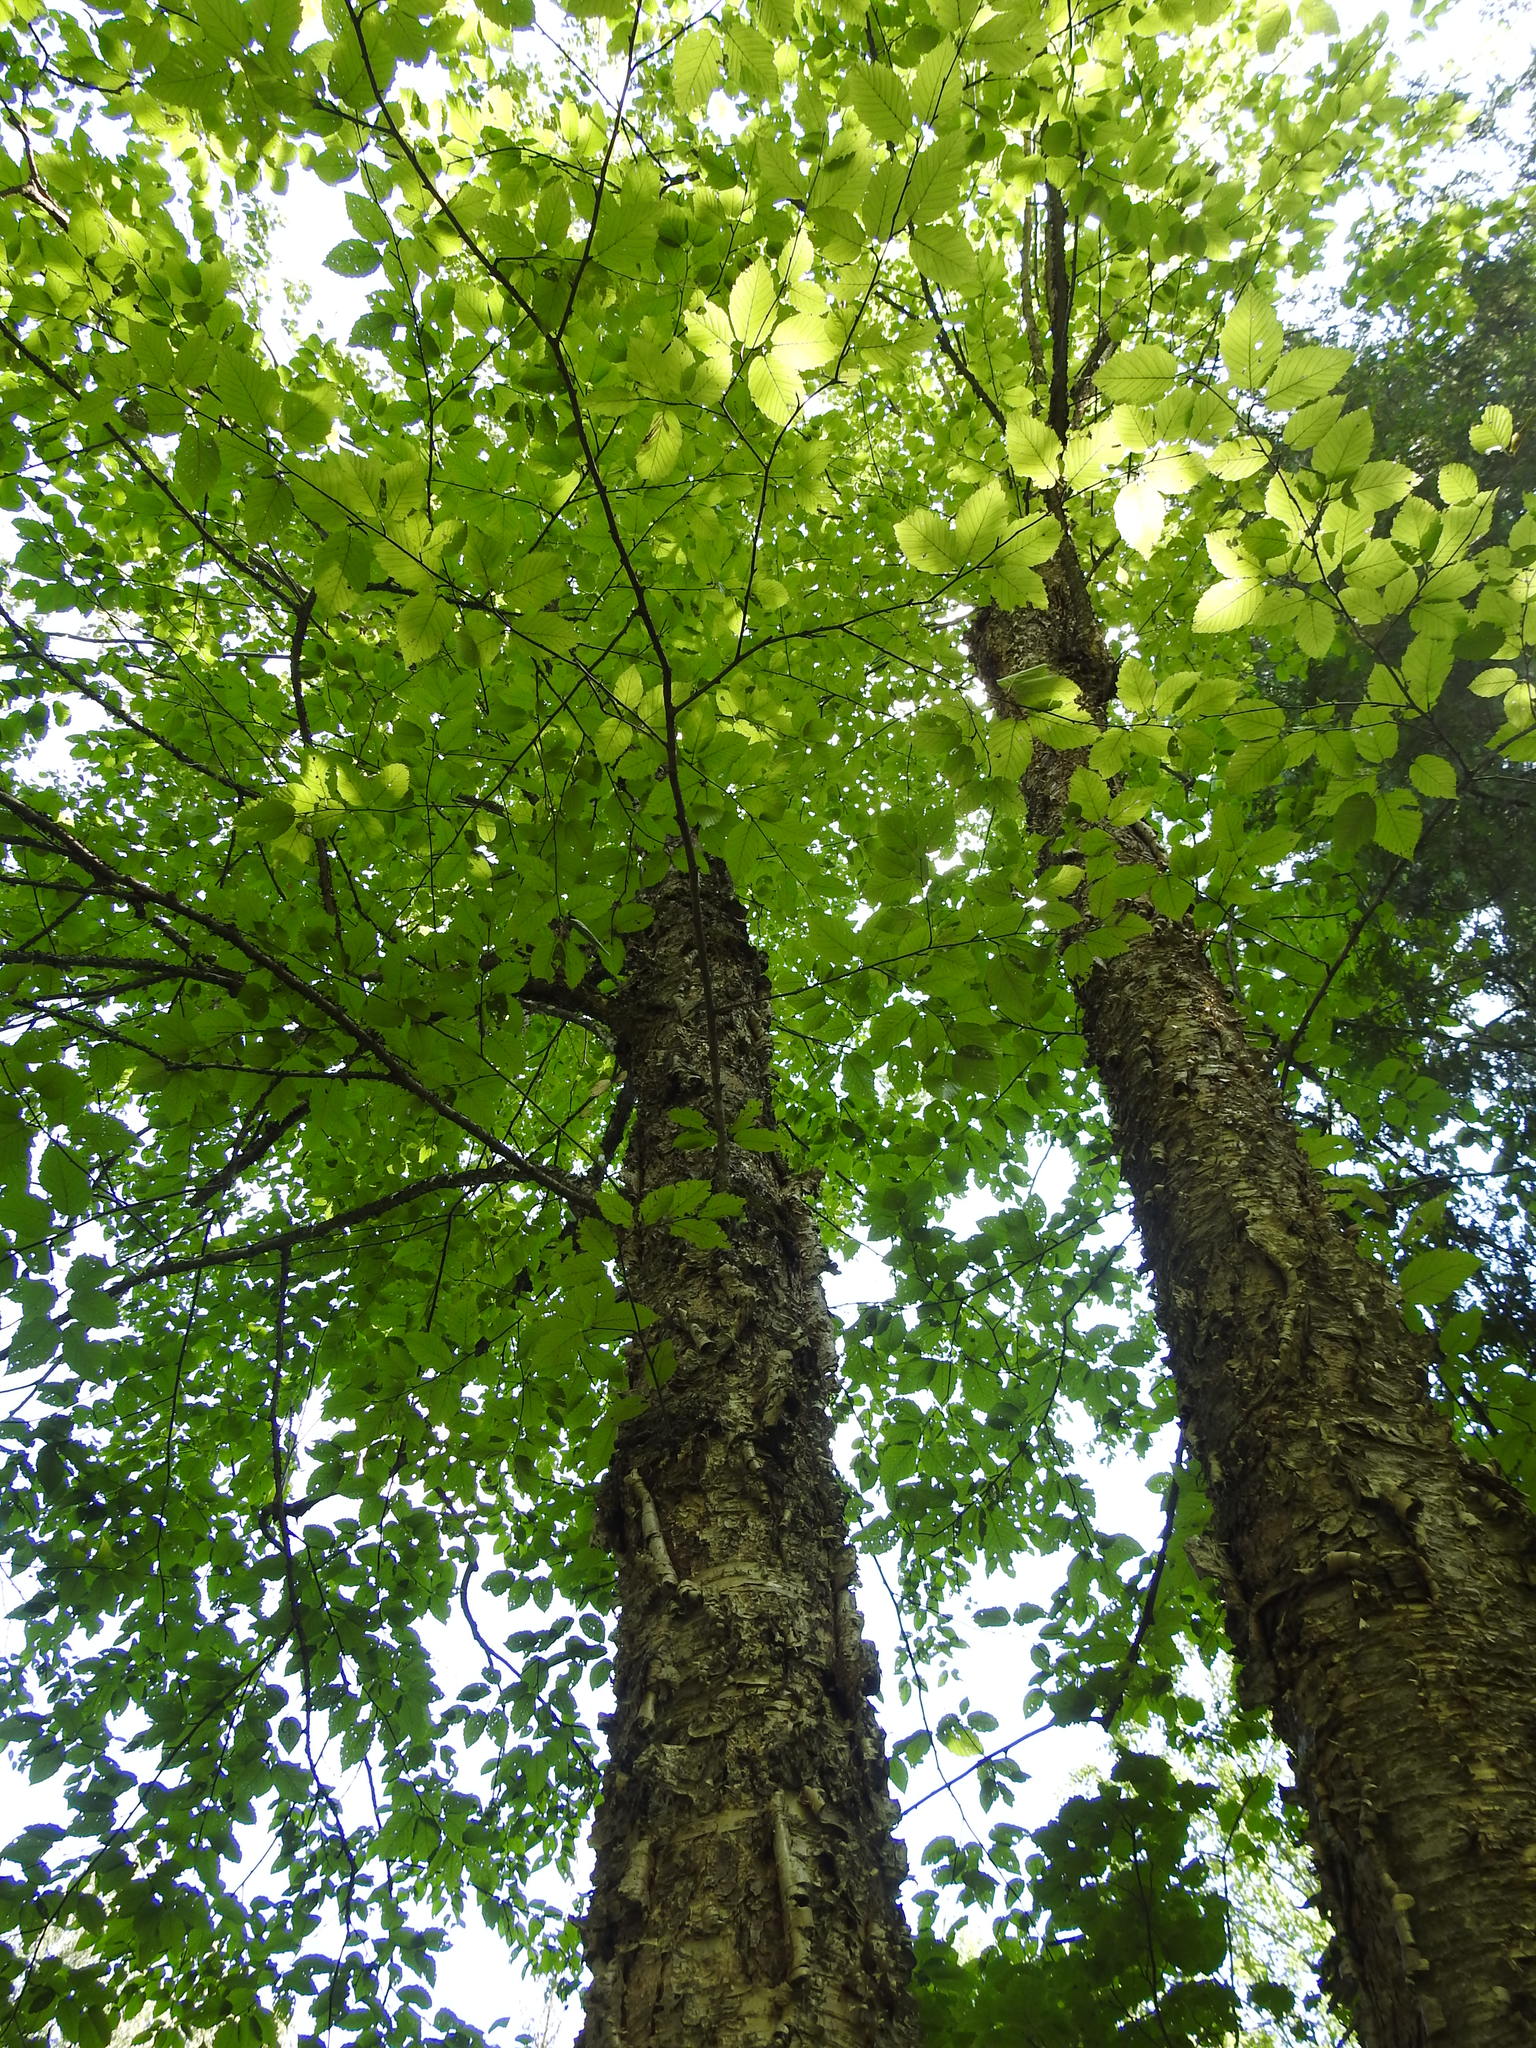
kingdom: Plantae
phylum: Tracheophyta
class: Magnoliopsida
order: Fagales
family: Betulaceae
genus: Betula
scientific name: Betula alleghaniensis
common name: Yellow birch
